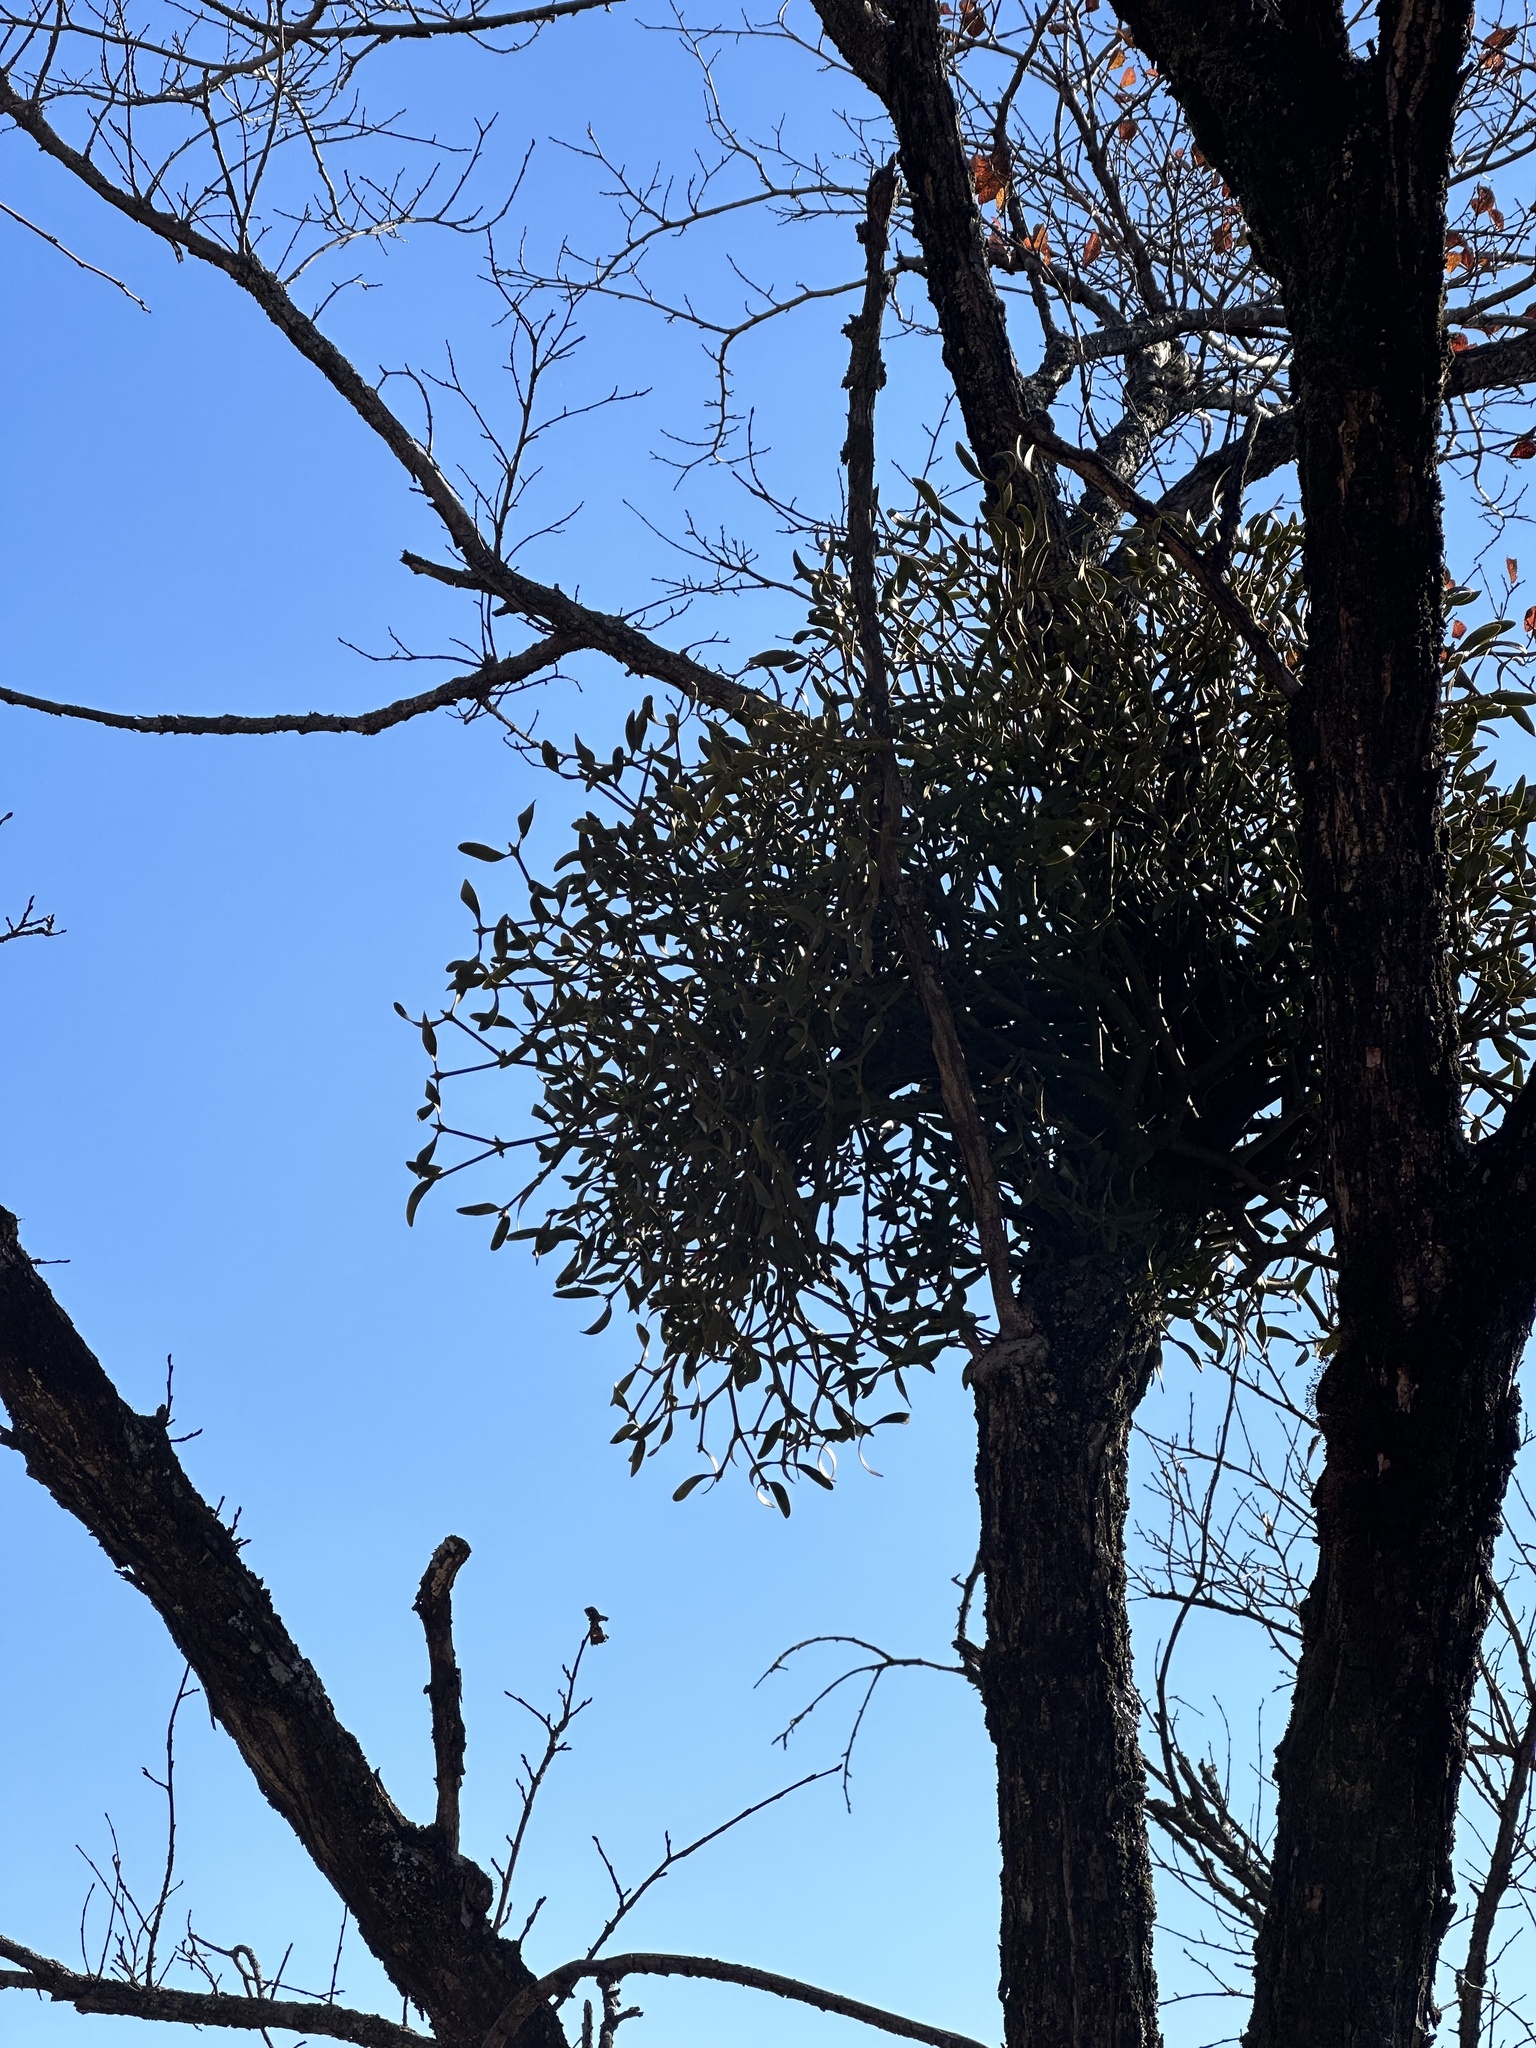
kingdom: Plantae
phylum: Tracheophyta
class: Magnoliopsida
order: Santalales
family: Viscaceae
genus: Viscum
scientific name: Viscum coloratum
